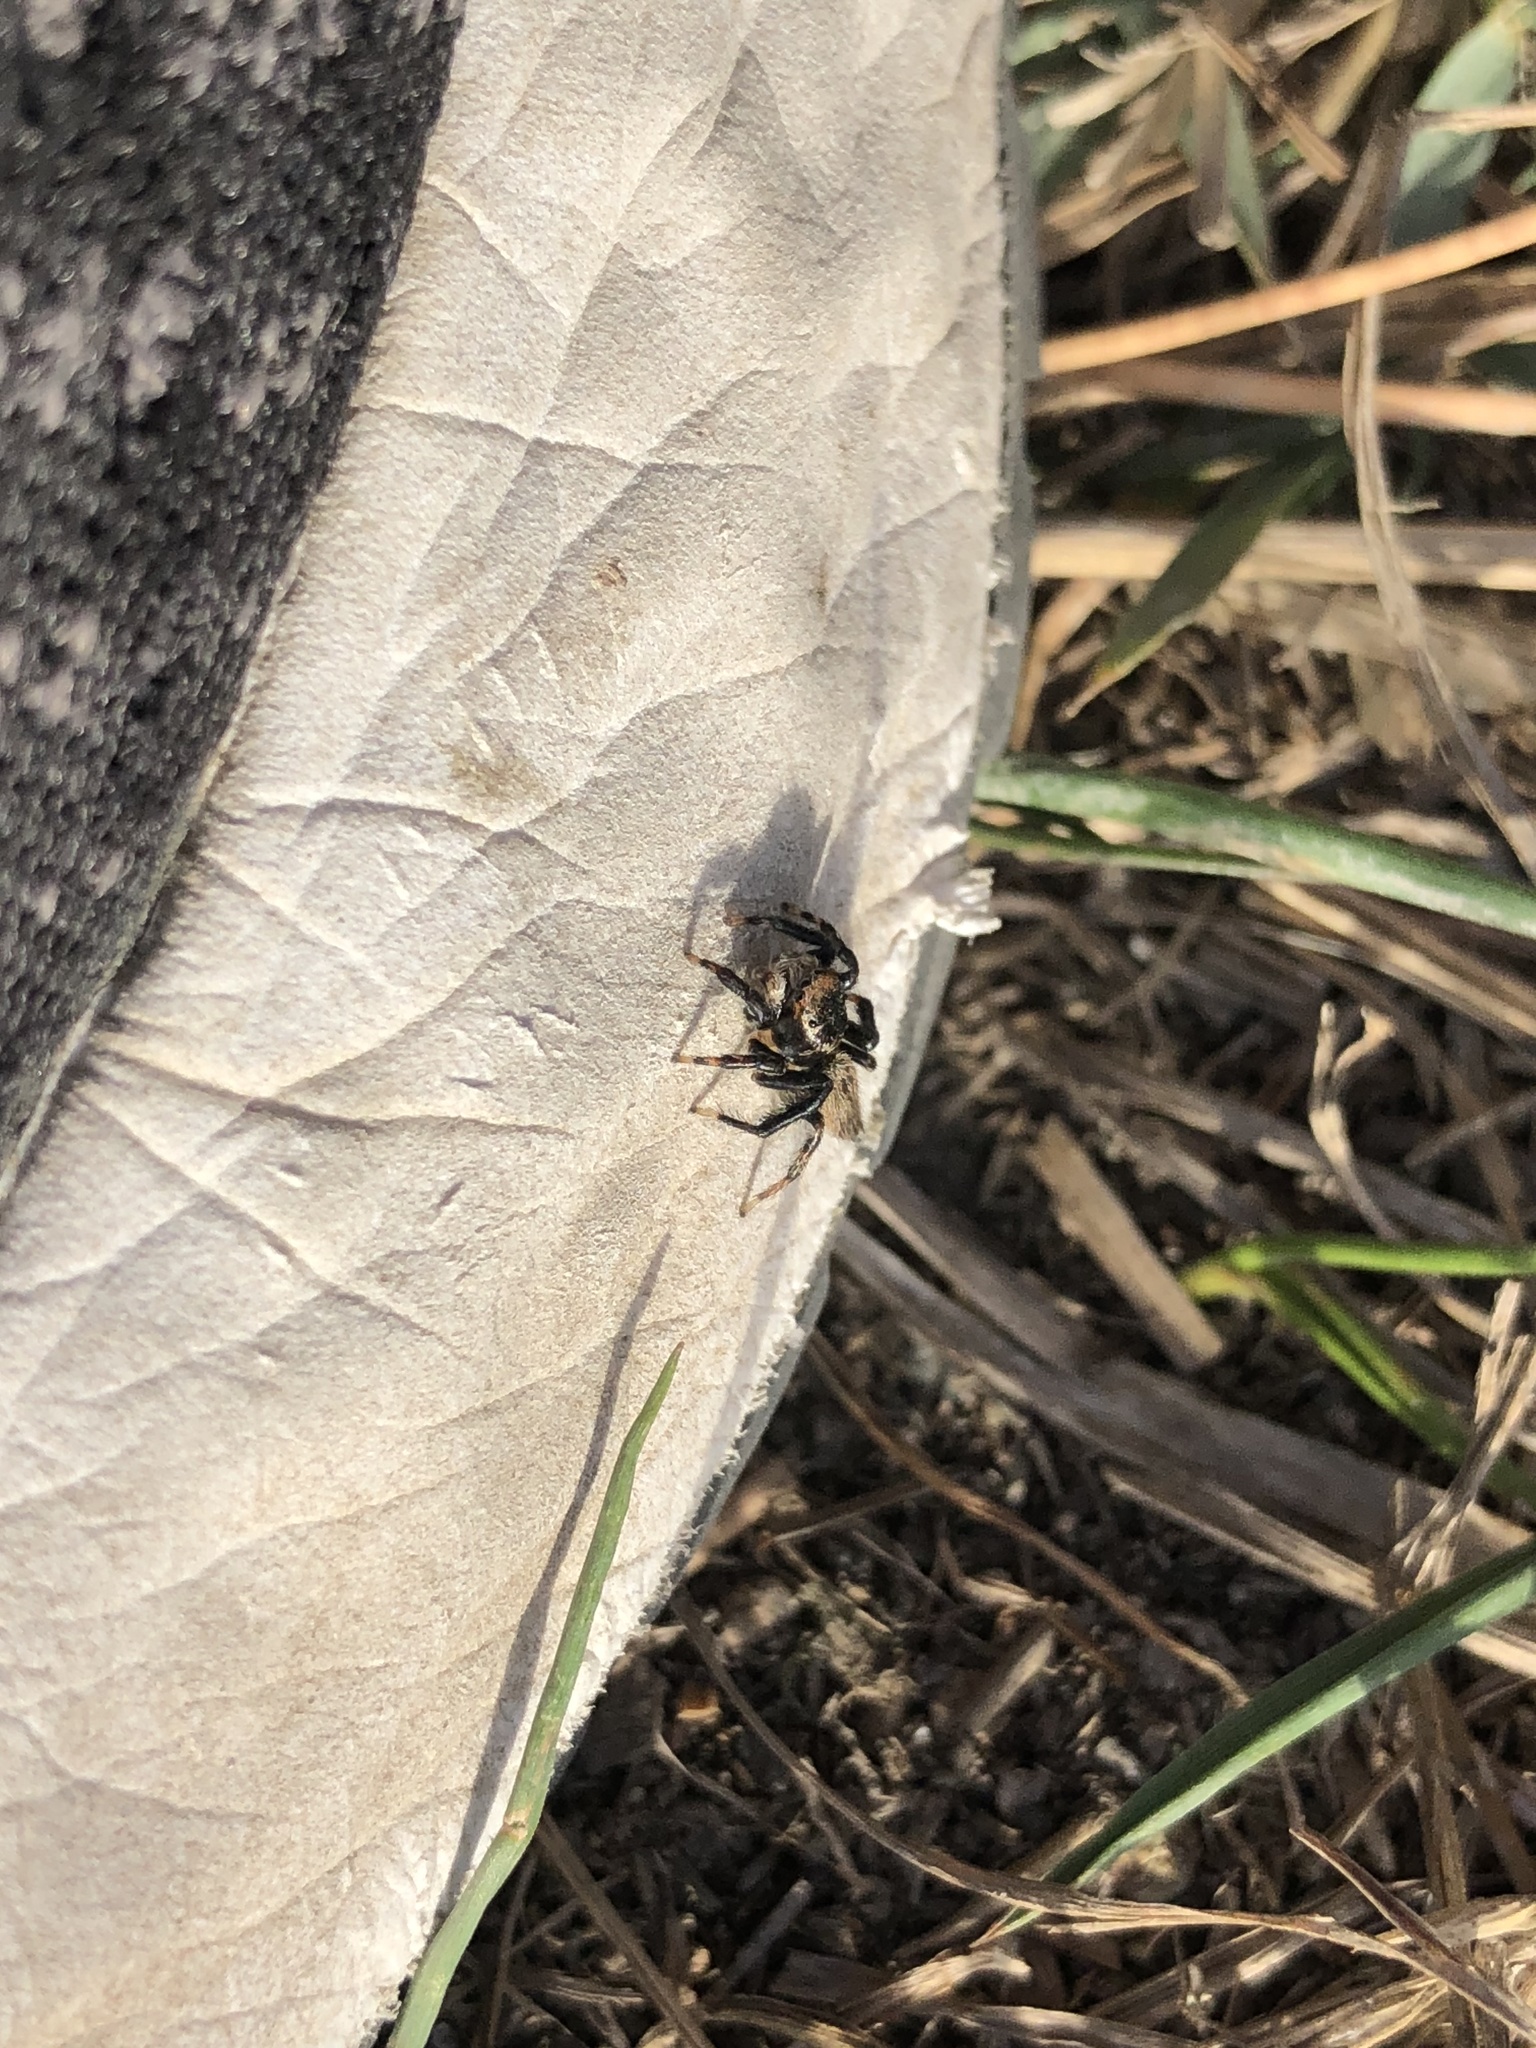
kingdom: Animalia
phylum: Arthropoda
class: Arachnida
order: Araneae
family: Salticidae
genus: Maratus
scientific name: Maratus griseus
